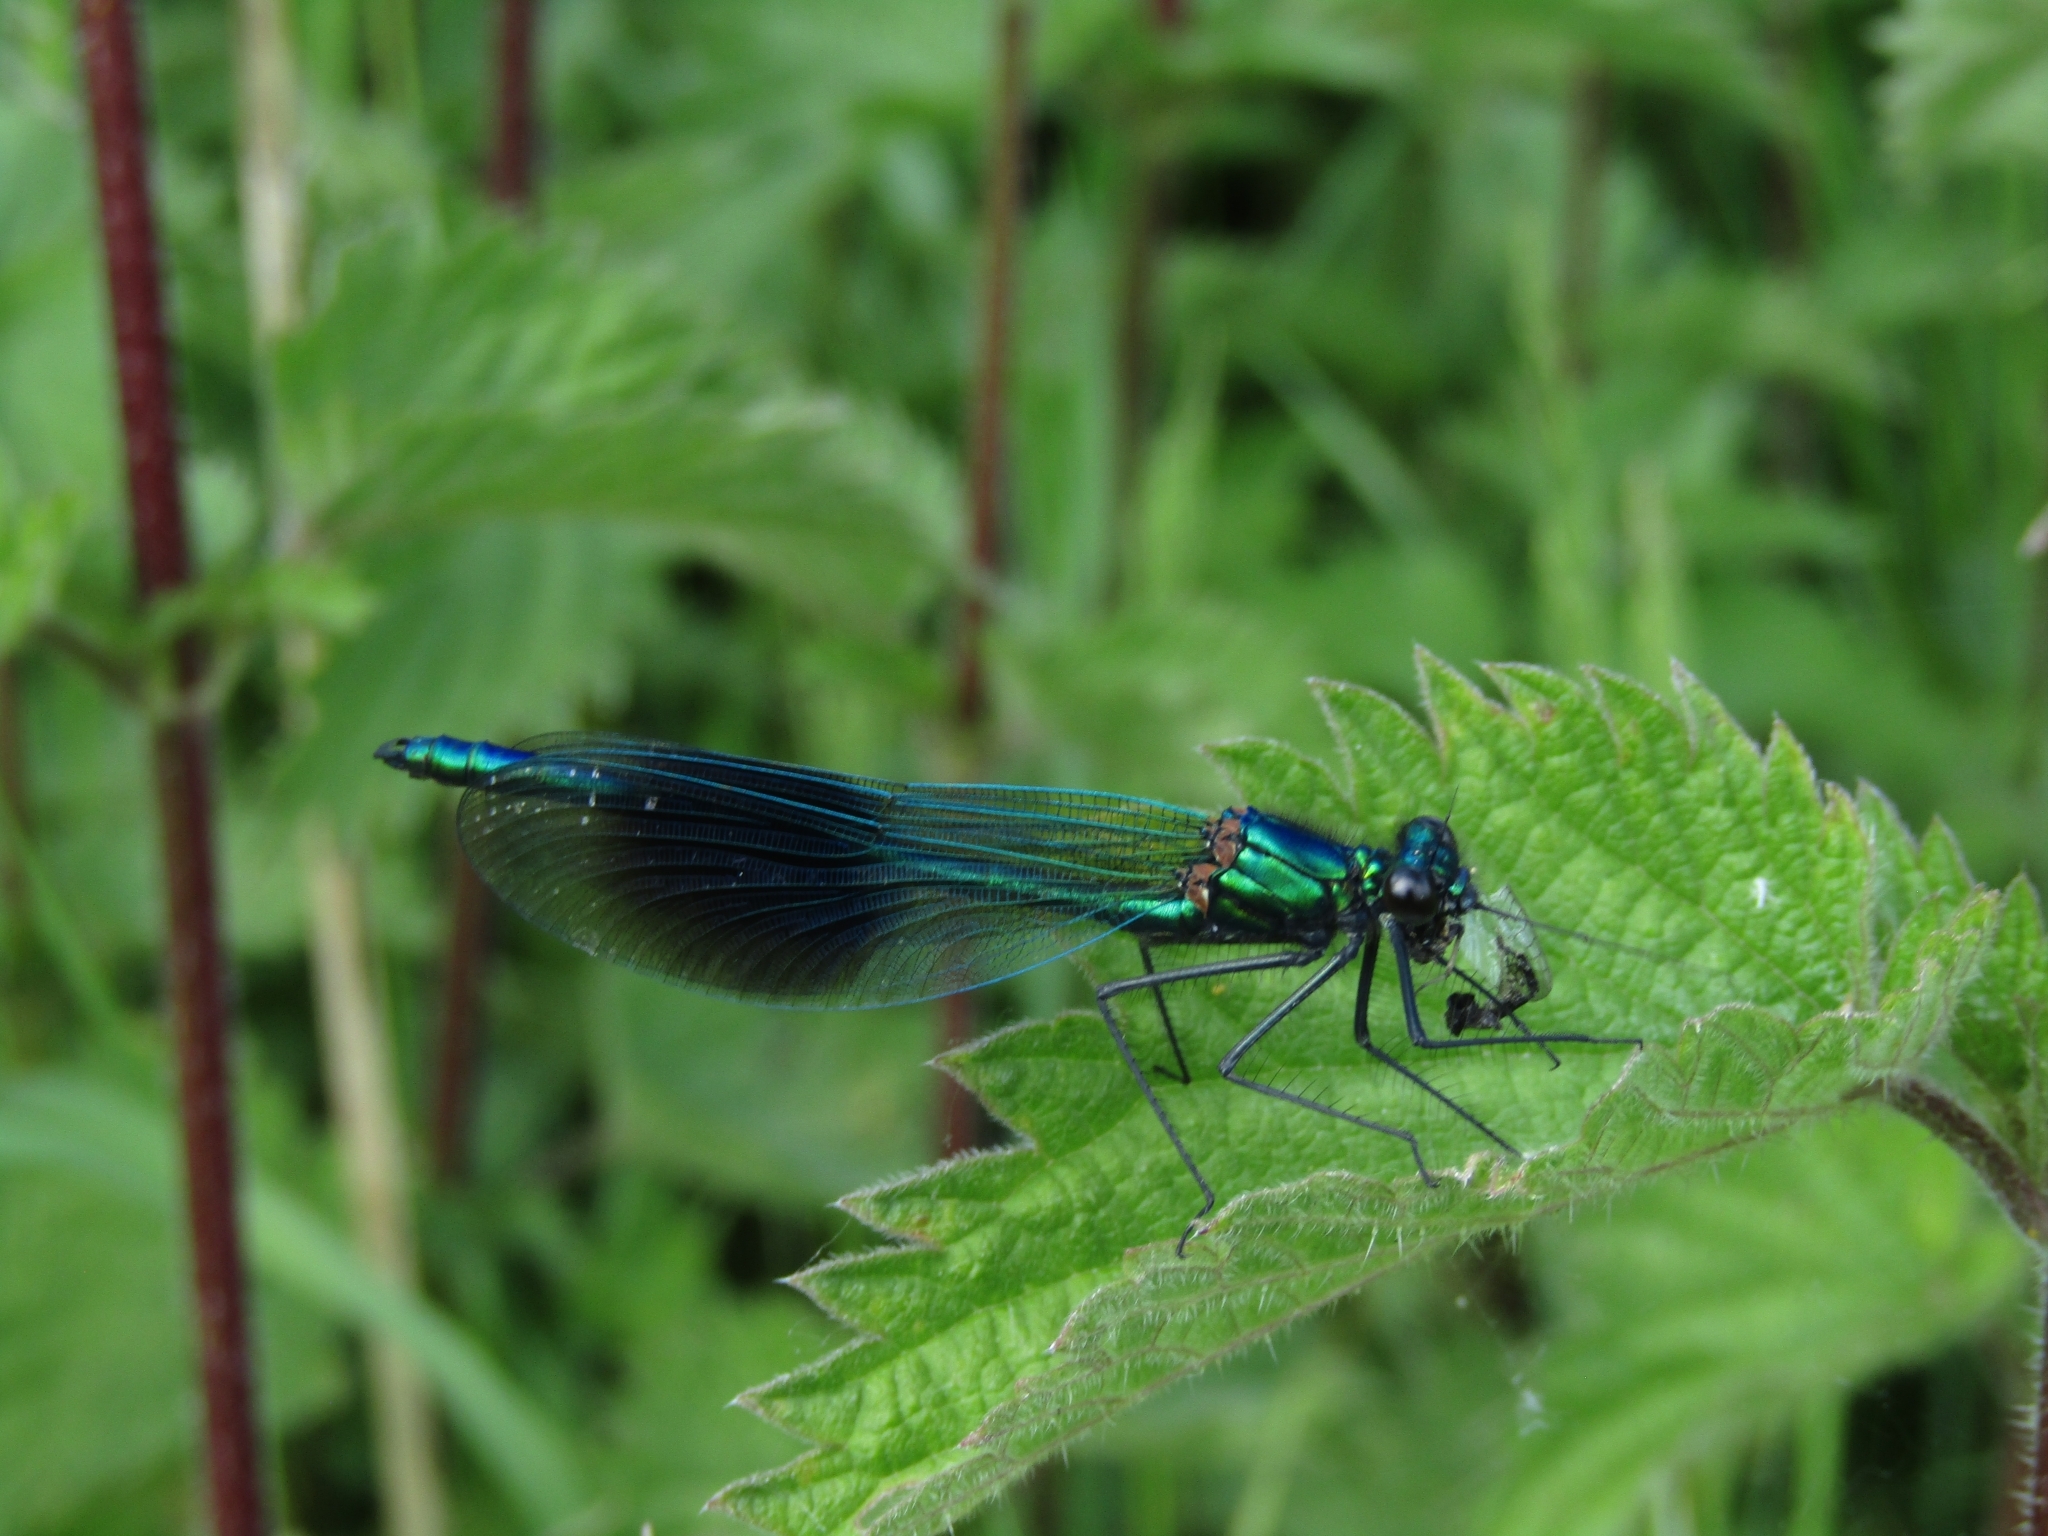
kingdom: Animalia
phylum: Arthropoda
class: Insecta
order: Odonata
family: Calopterygidae
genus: Calopteryx
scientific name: Calopteryx splendens
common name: Banded demoiselle
